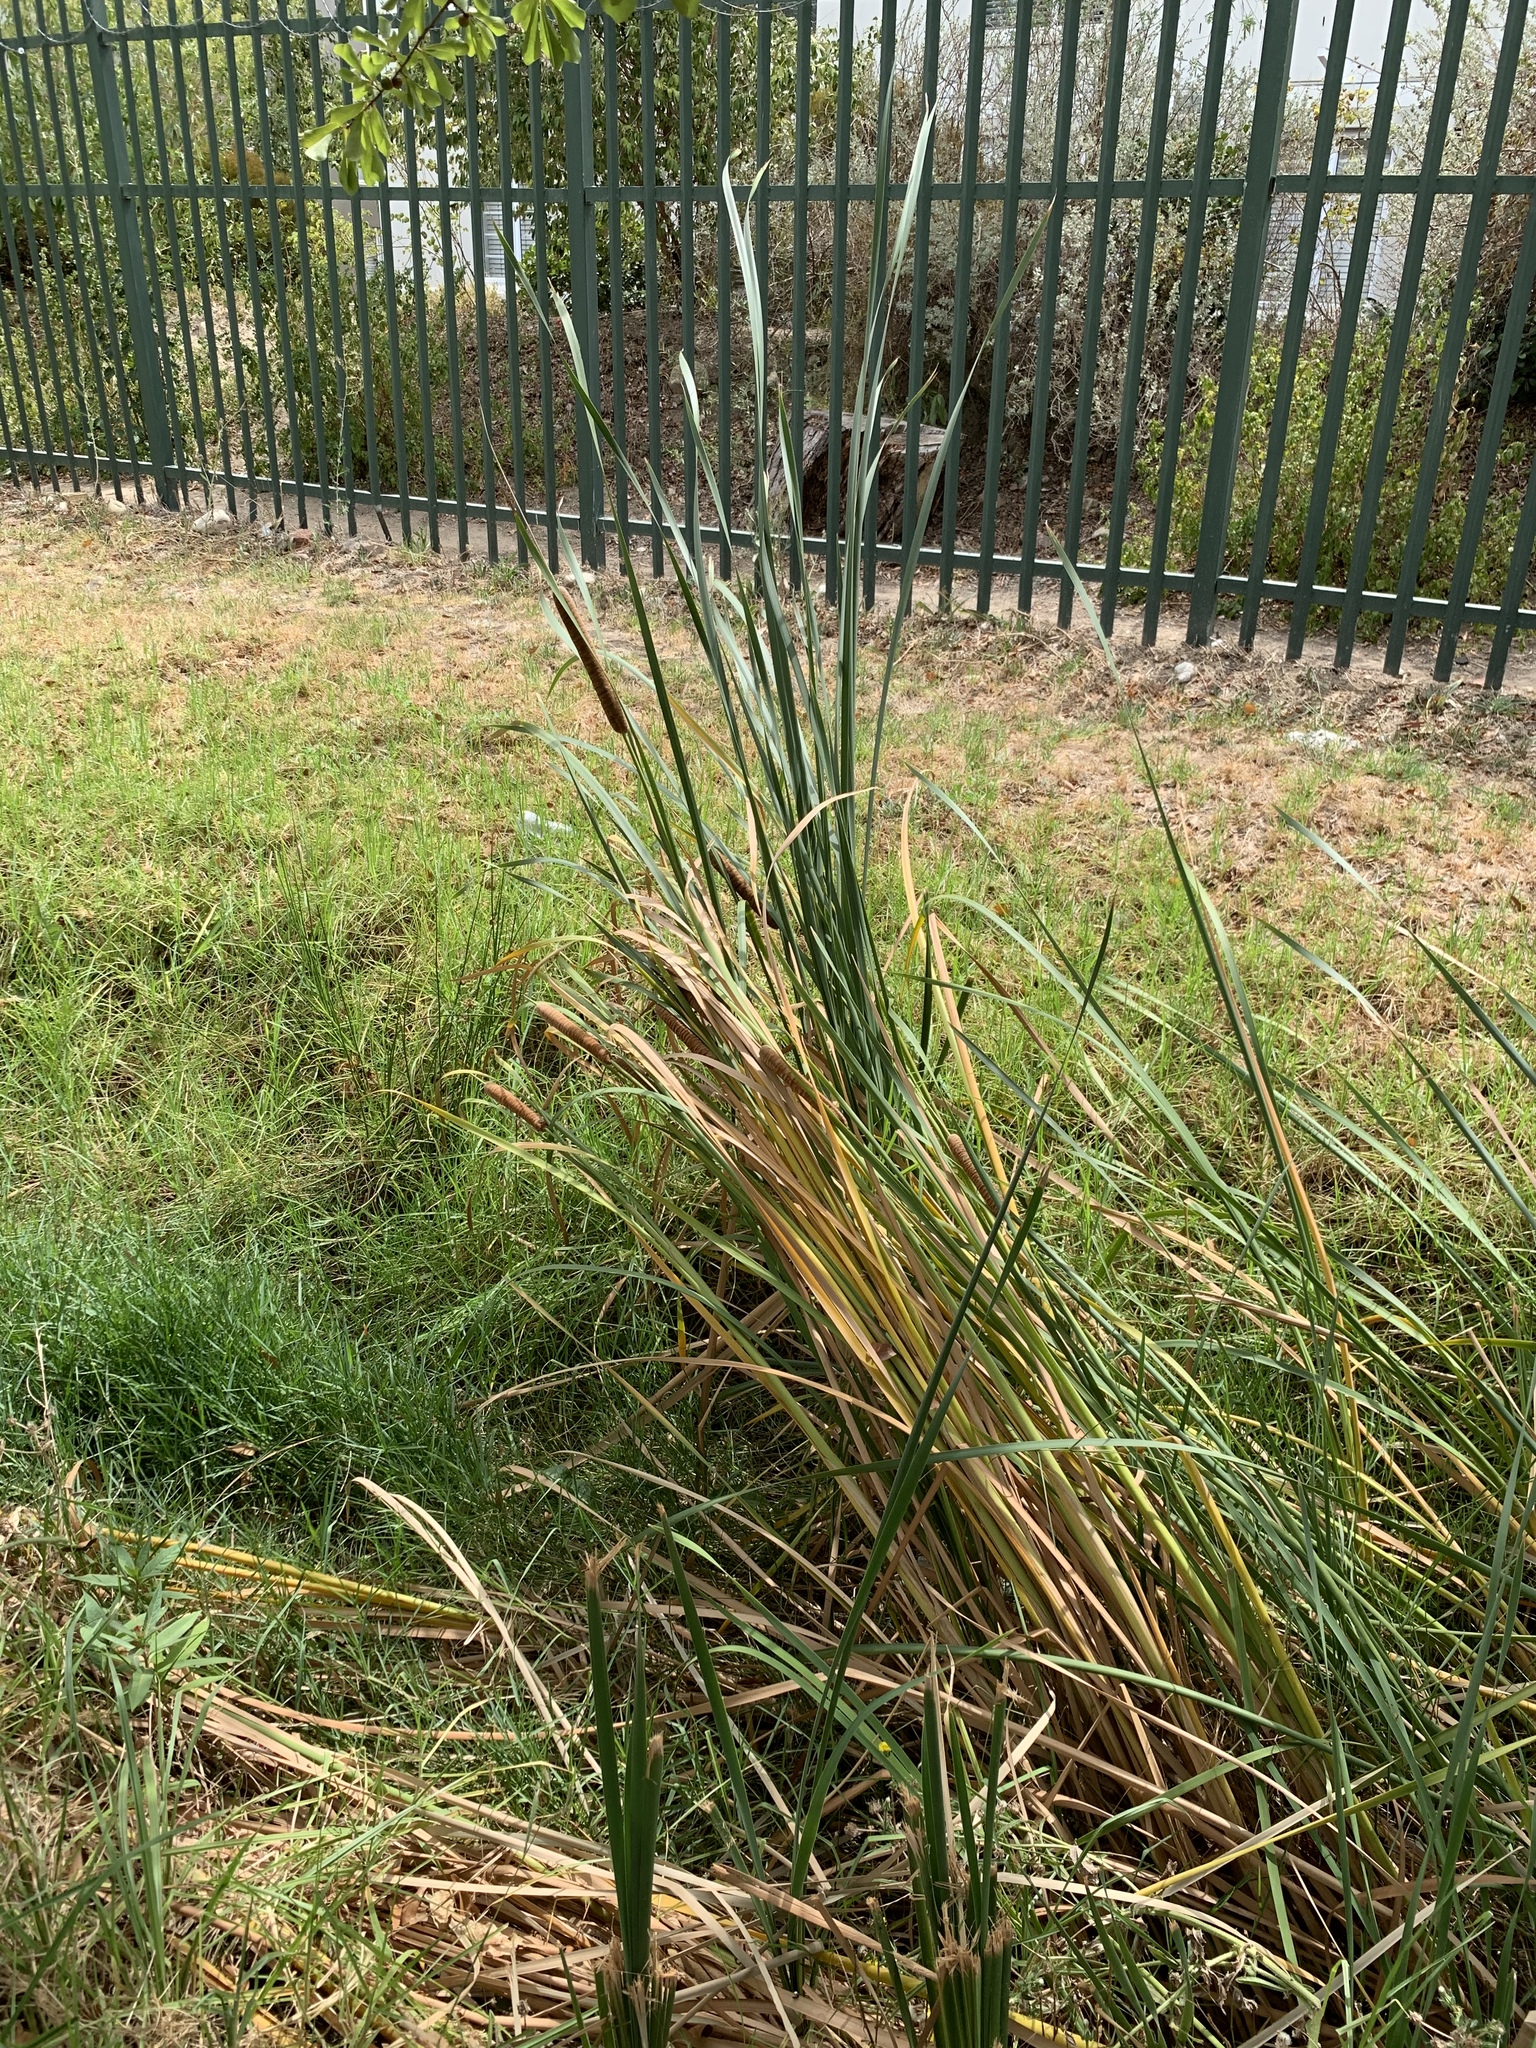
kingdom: Plantae
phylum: Tracheophyta
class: Liliopsida
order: Poales
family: Typhaceae
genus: Typha
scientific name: Typha capensis
